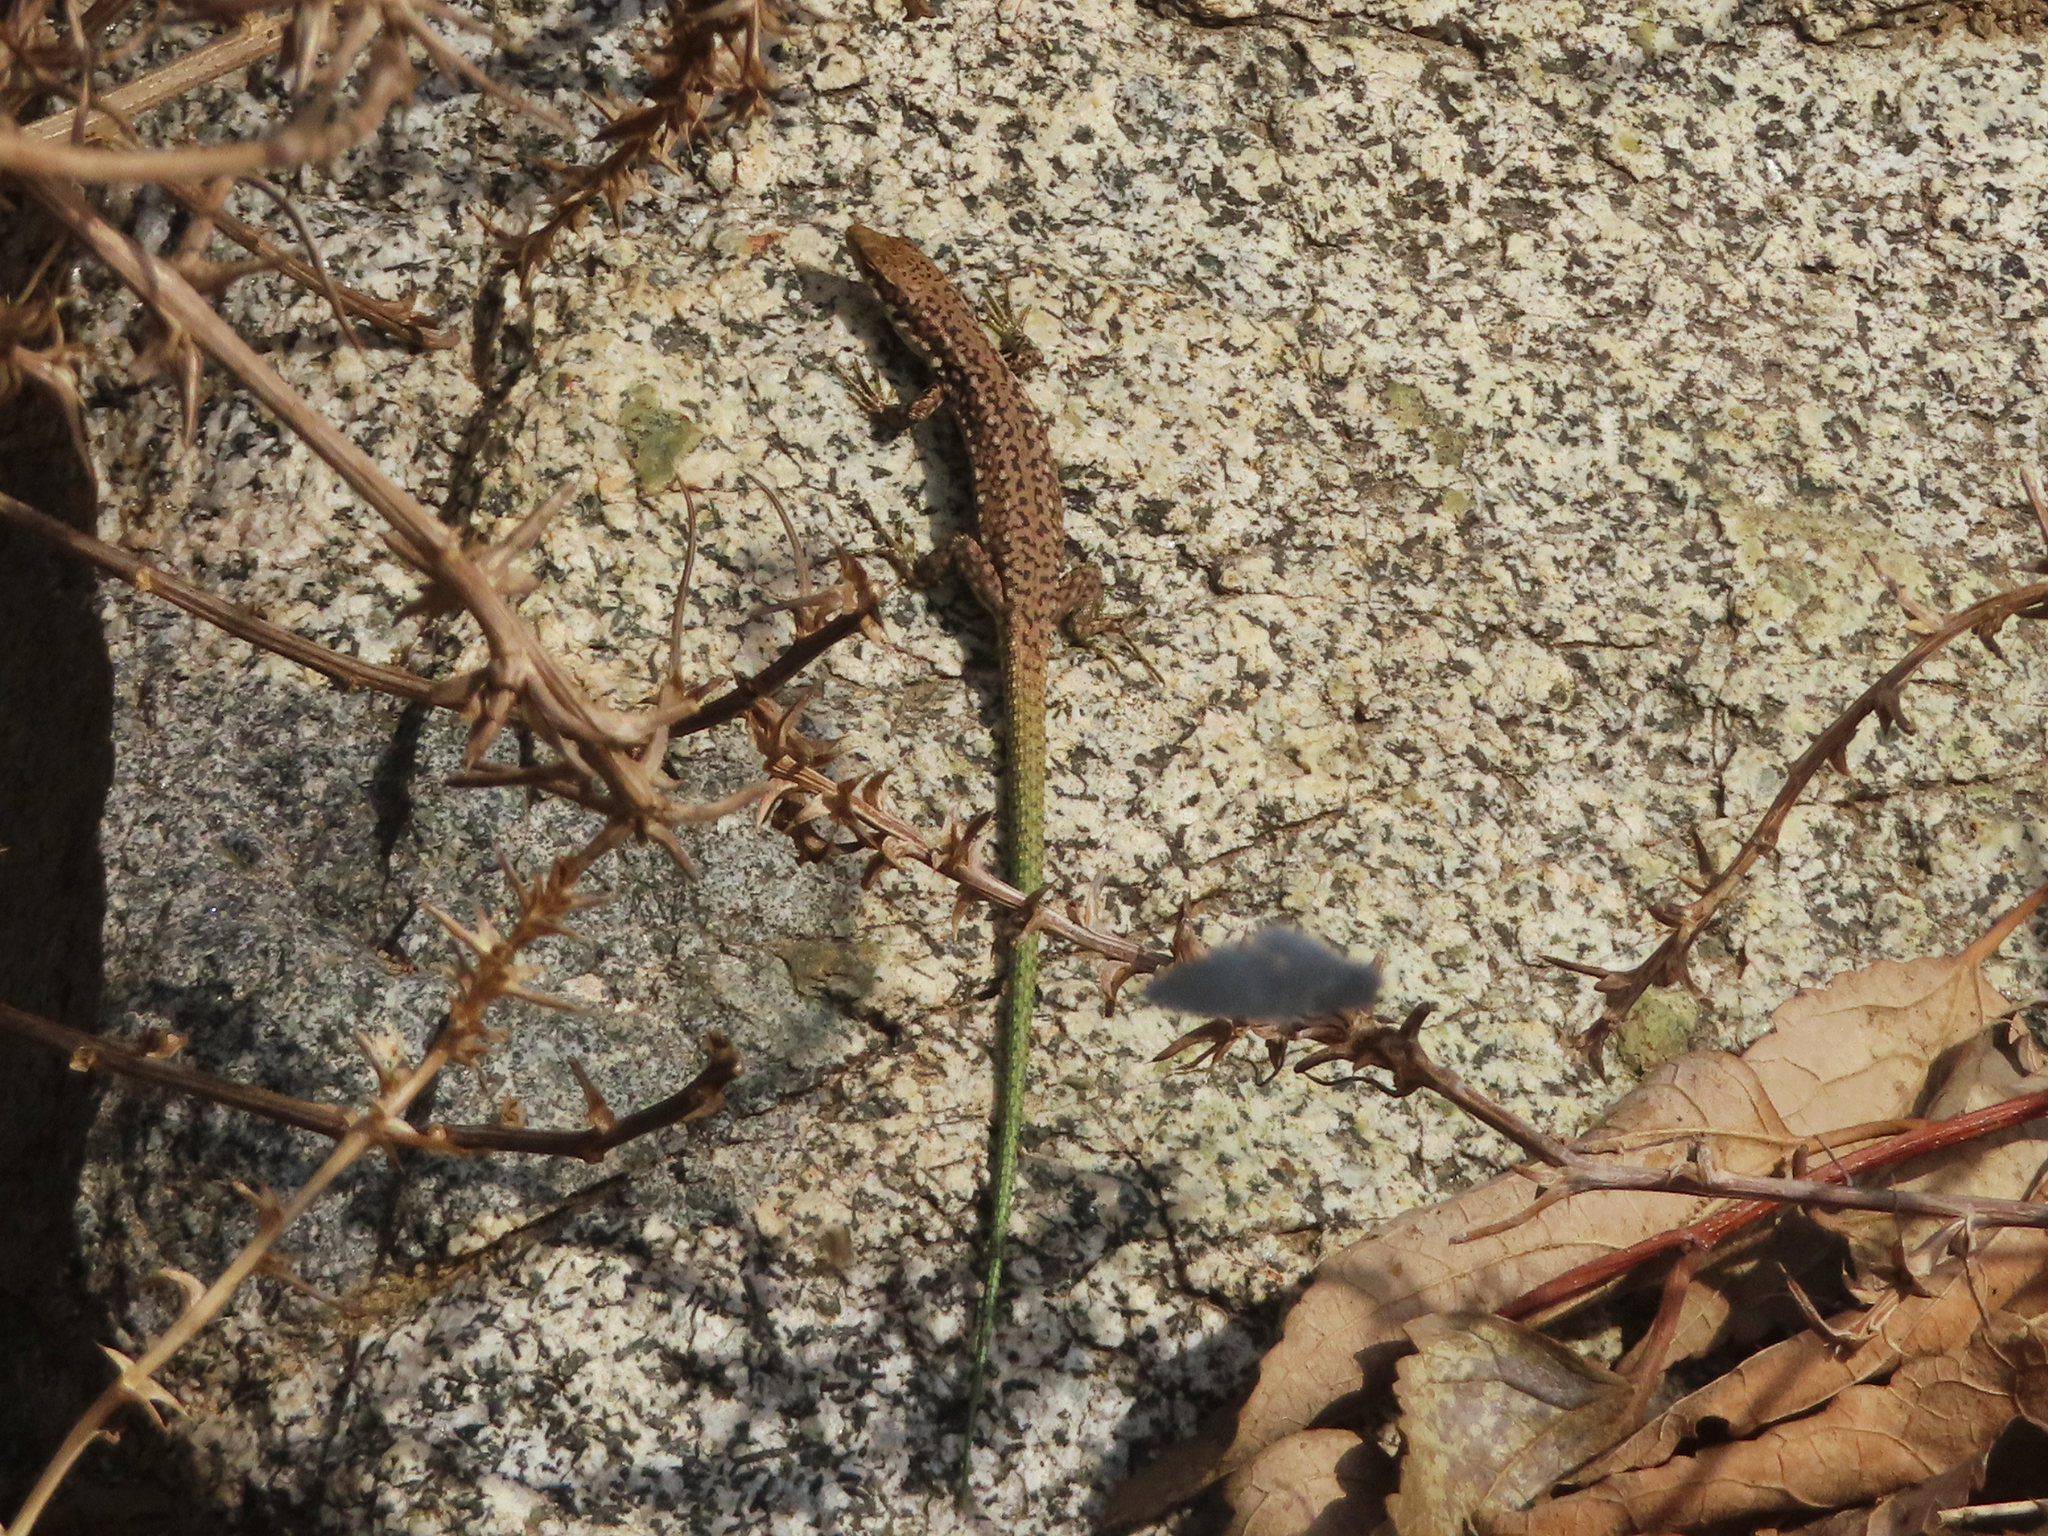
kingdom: Animalia
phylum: Chordata
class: Squamata
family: Lacertidae
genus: Darevskia
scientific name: Darevskia raddei
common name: Radde's lizard
